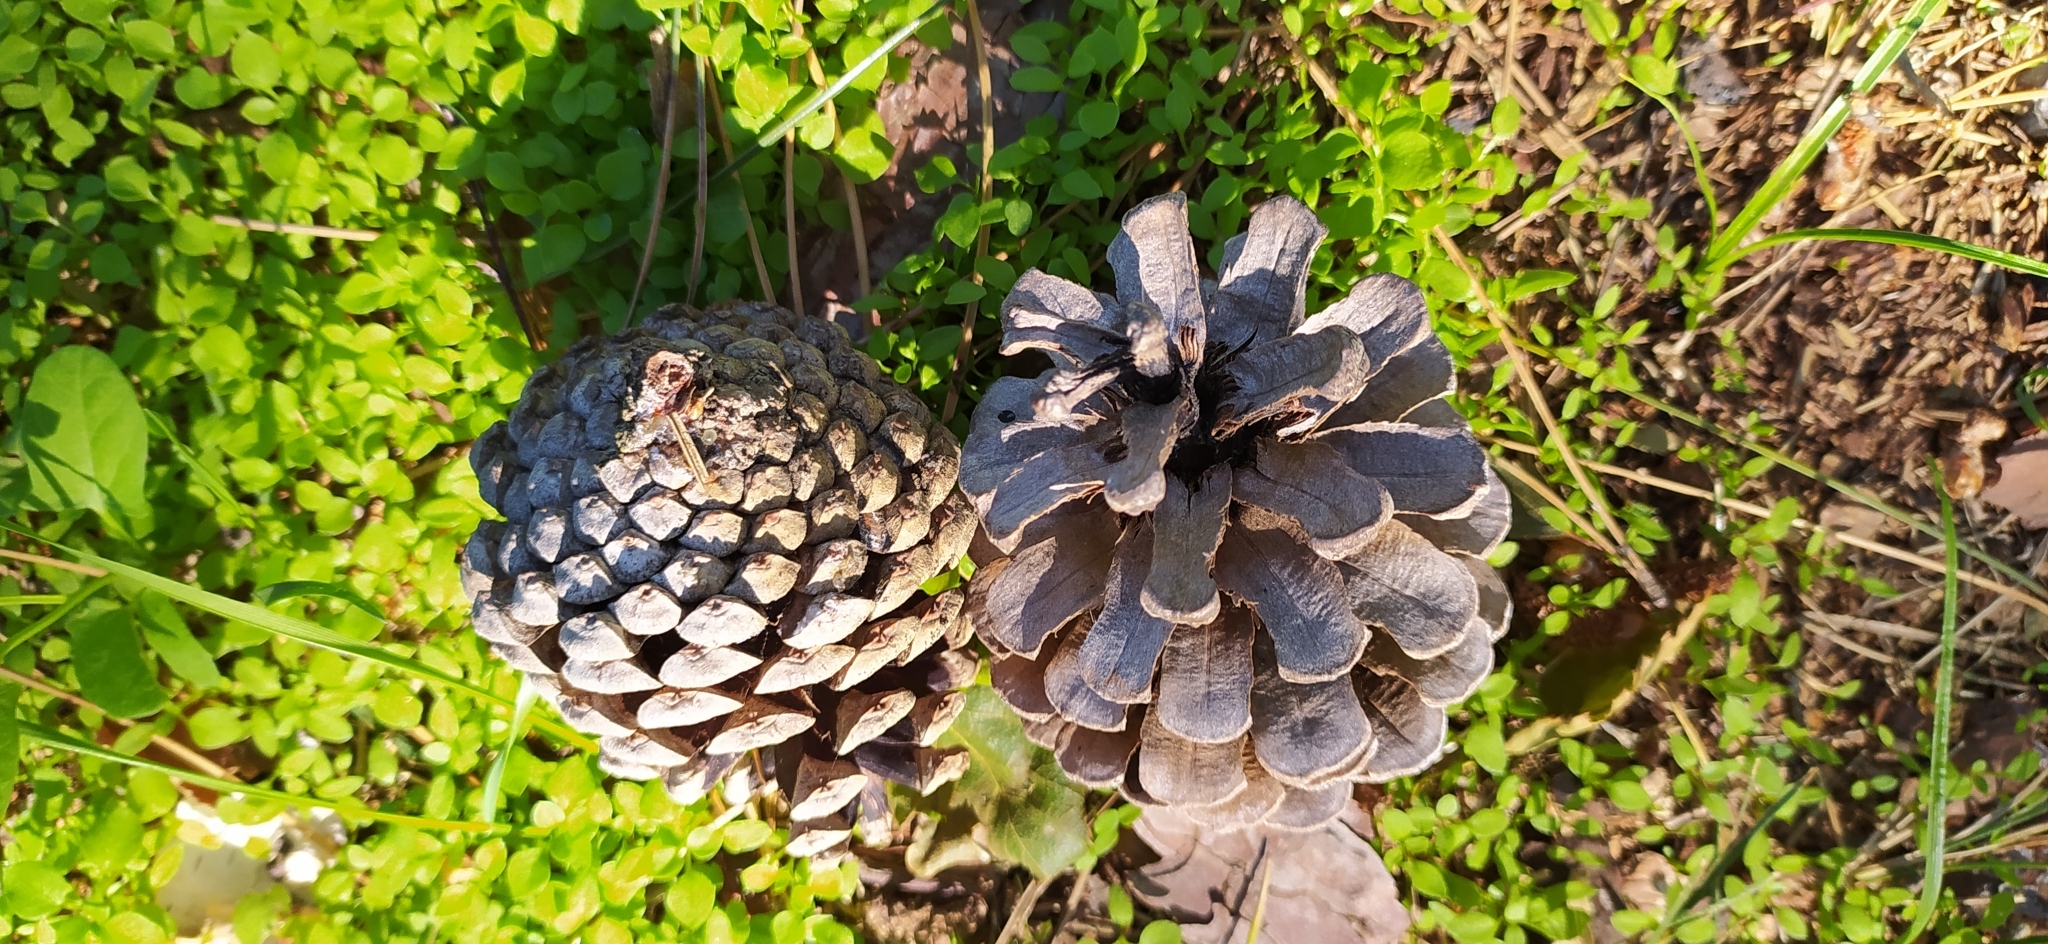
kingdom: Plantae
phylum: Tracheophyta
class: Pinopsida
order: Pinales
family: Pinaceae
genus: Pinus
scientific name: Pinus sylvestris
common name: Scots pine
